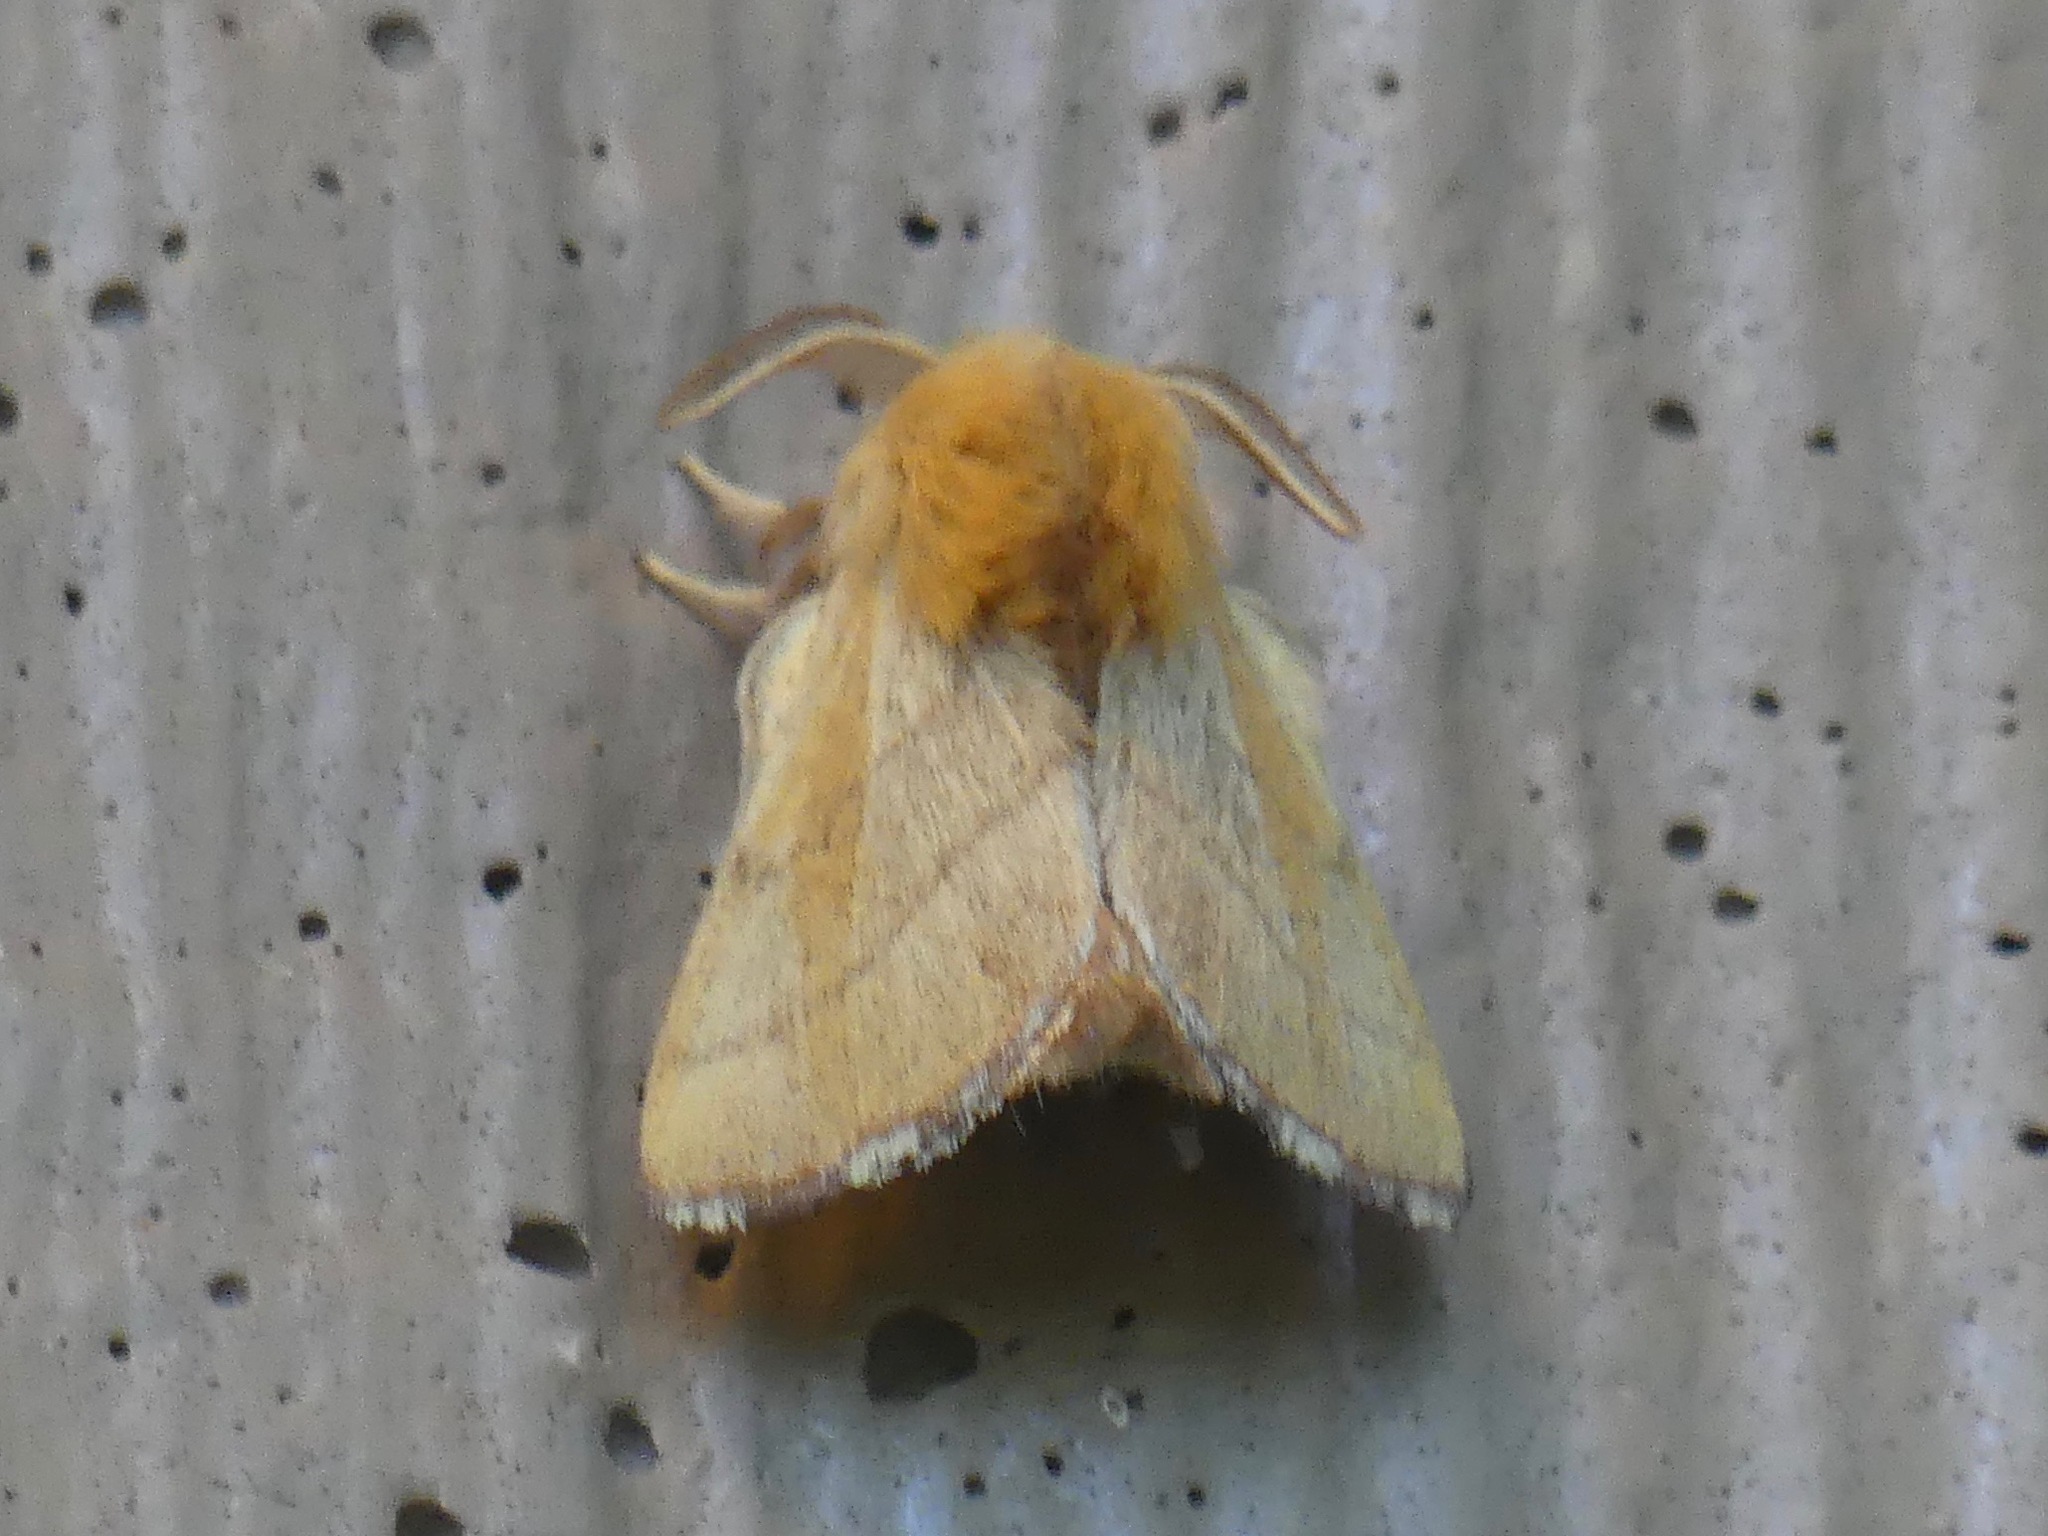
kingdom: Animalia
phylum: Arthropoda
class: Insecta
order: Lepidoptera
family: Lasiocampidae
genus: Malacosoma
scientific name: Malacosoma disstria
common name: Forest tent caterpillar
